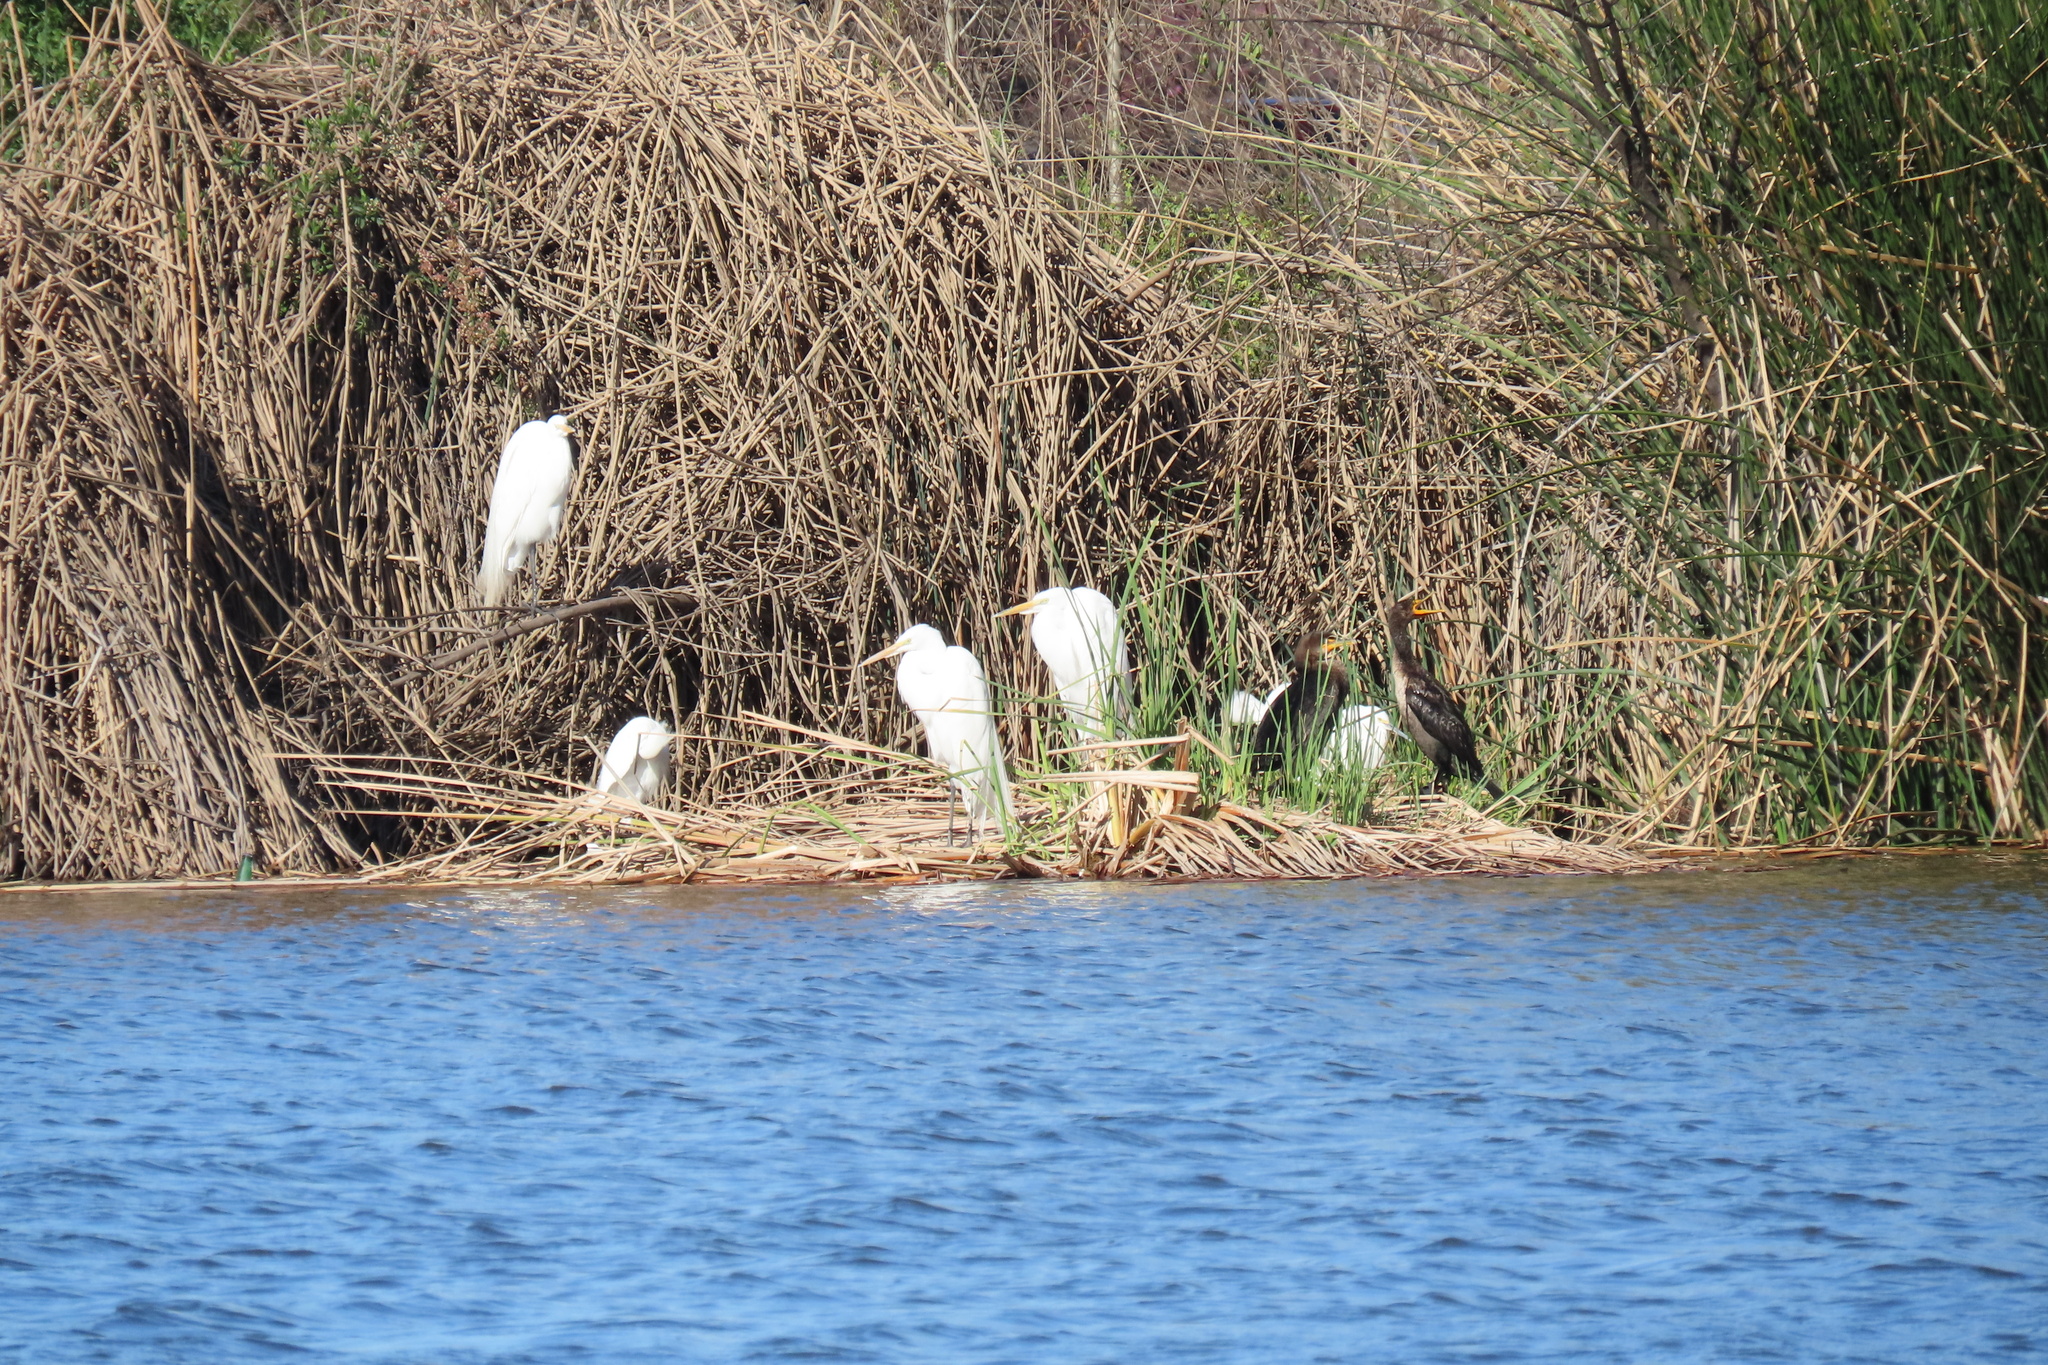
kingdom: Animalia
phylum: Chordata
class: Aves
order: Pelecaniformes
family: Ardeidae
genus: Egretta
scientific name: Egretta thula
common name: Snowy egret
